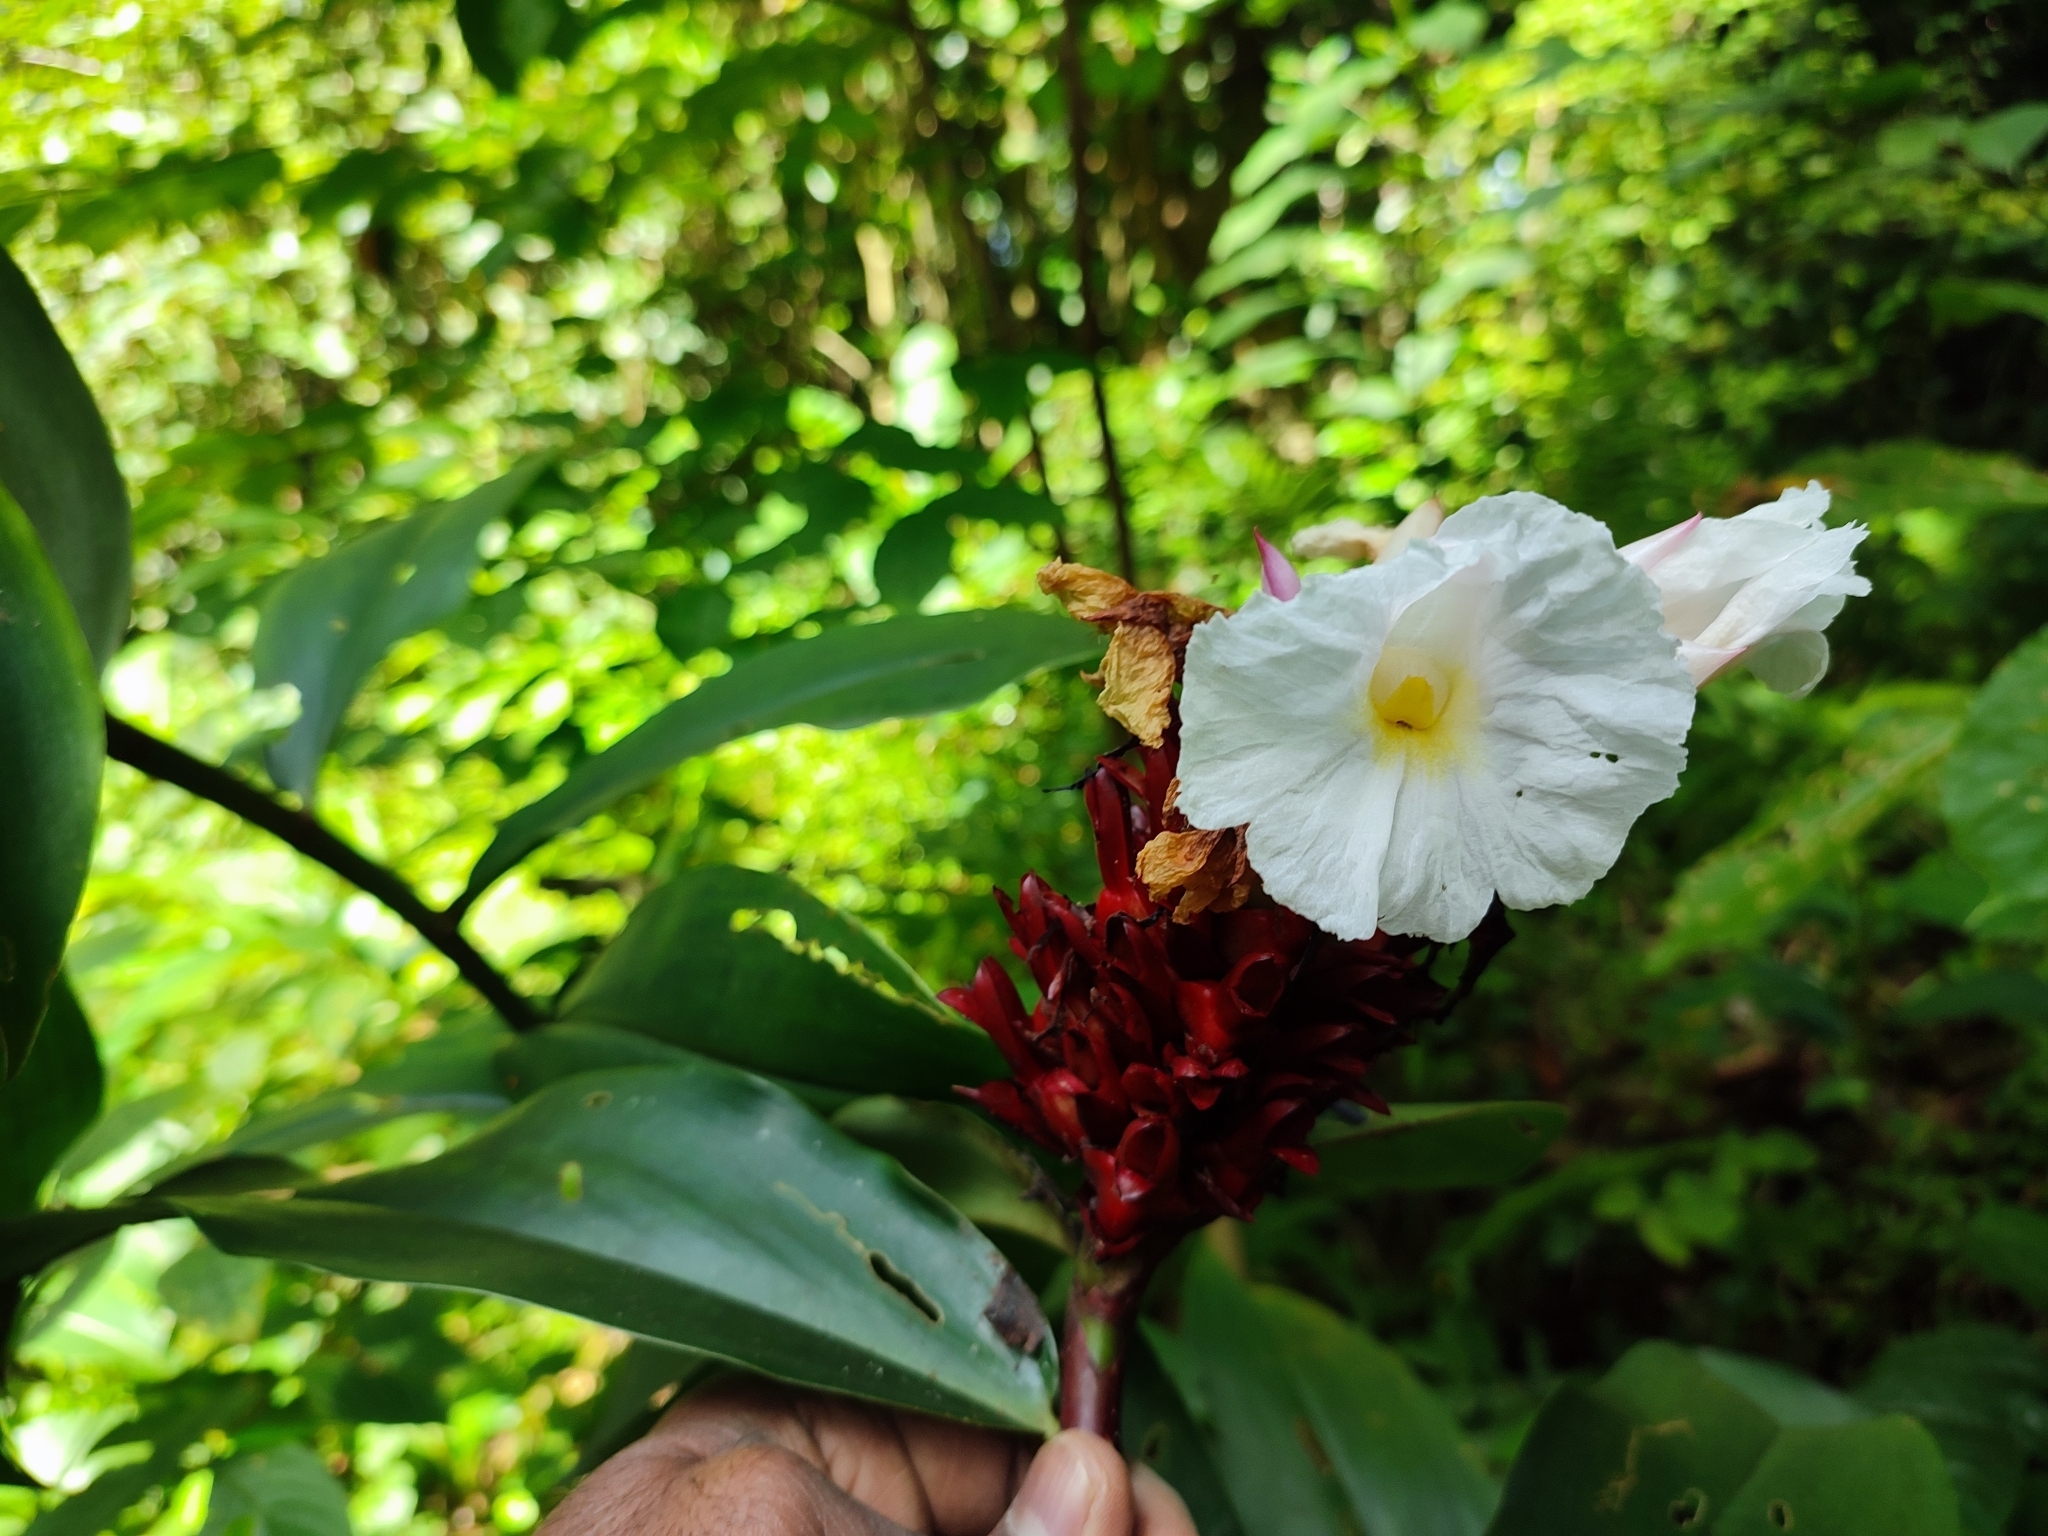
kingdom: Plantae
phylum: Tracheophyta
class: Liliopsida
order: Zingiberales
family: Costaceae
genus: Hellenia
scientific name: Hellenia speciosa
